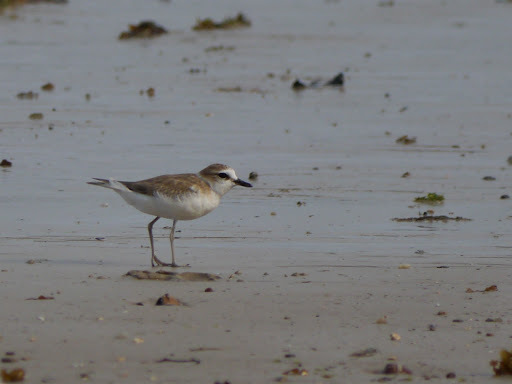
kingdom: Animalia
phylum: Chordata
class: Aves
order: Charadriiformes
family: Charadriidae
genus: Anarhynchus
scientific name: Anarhynchus
